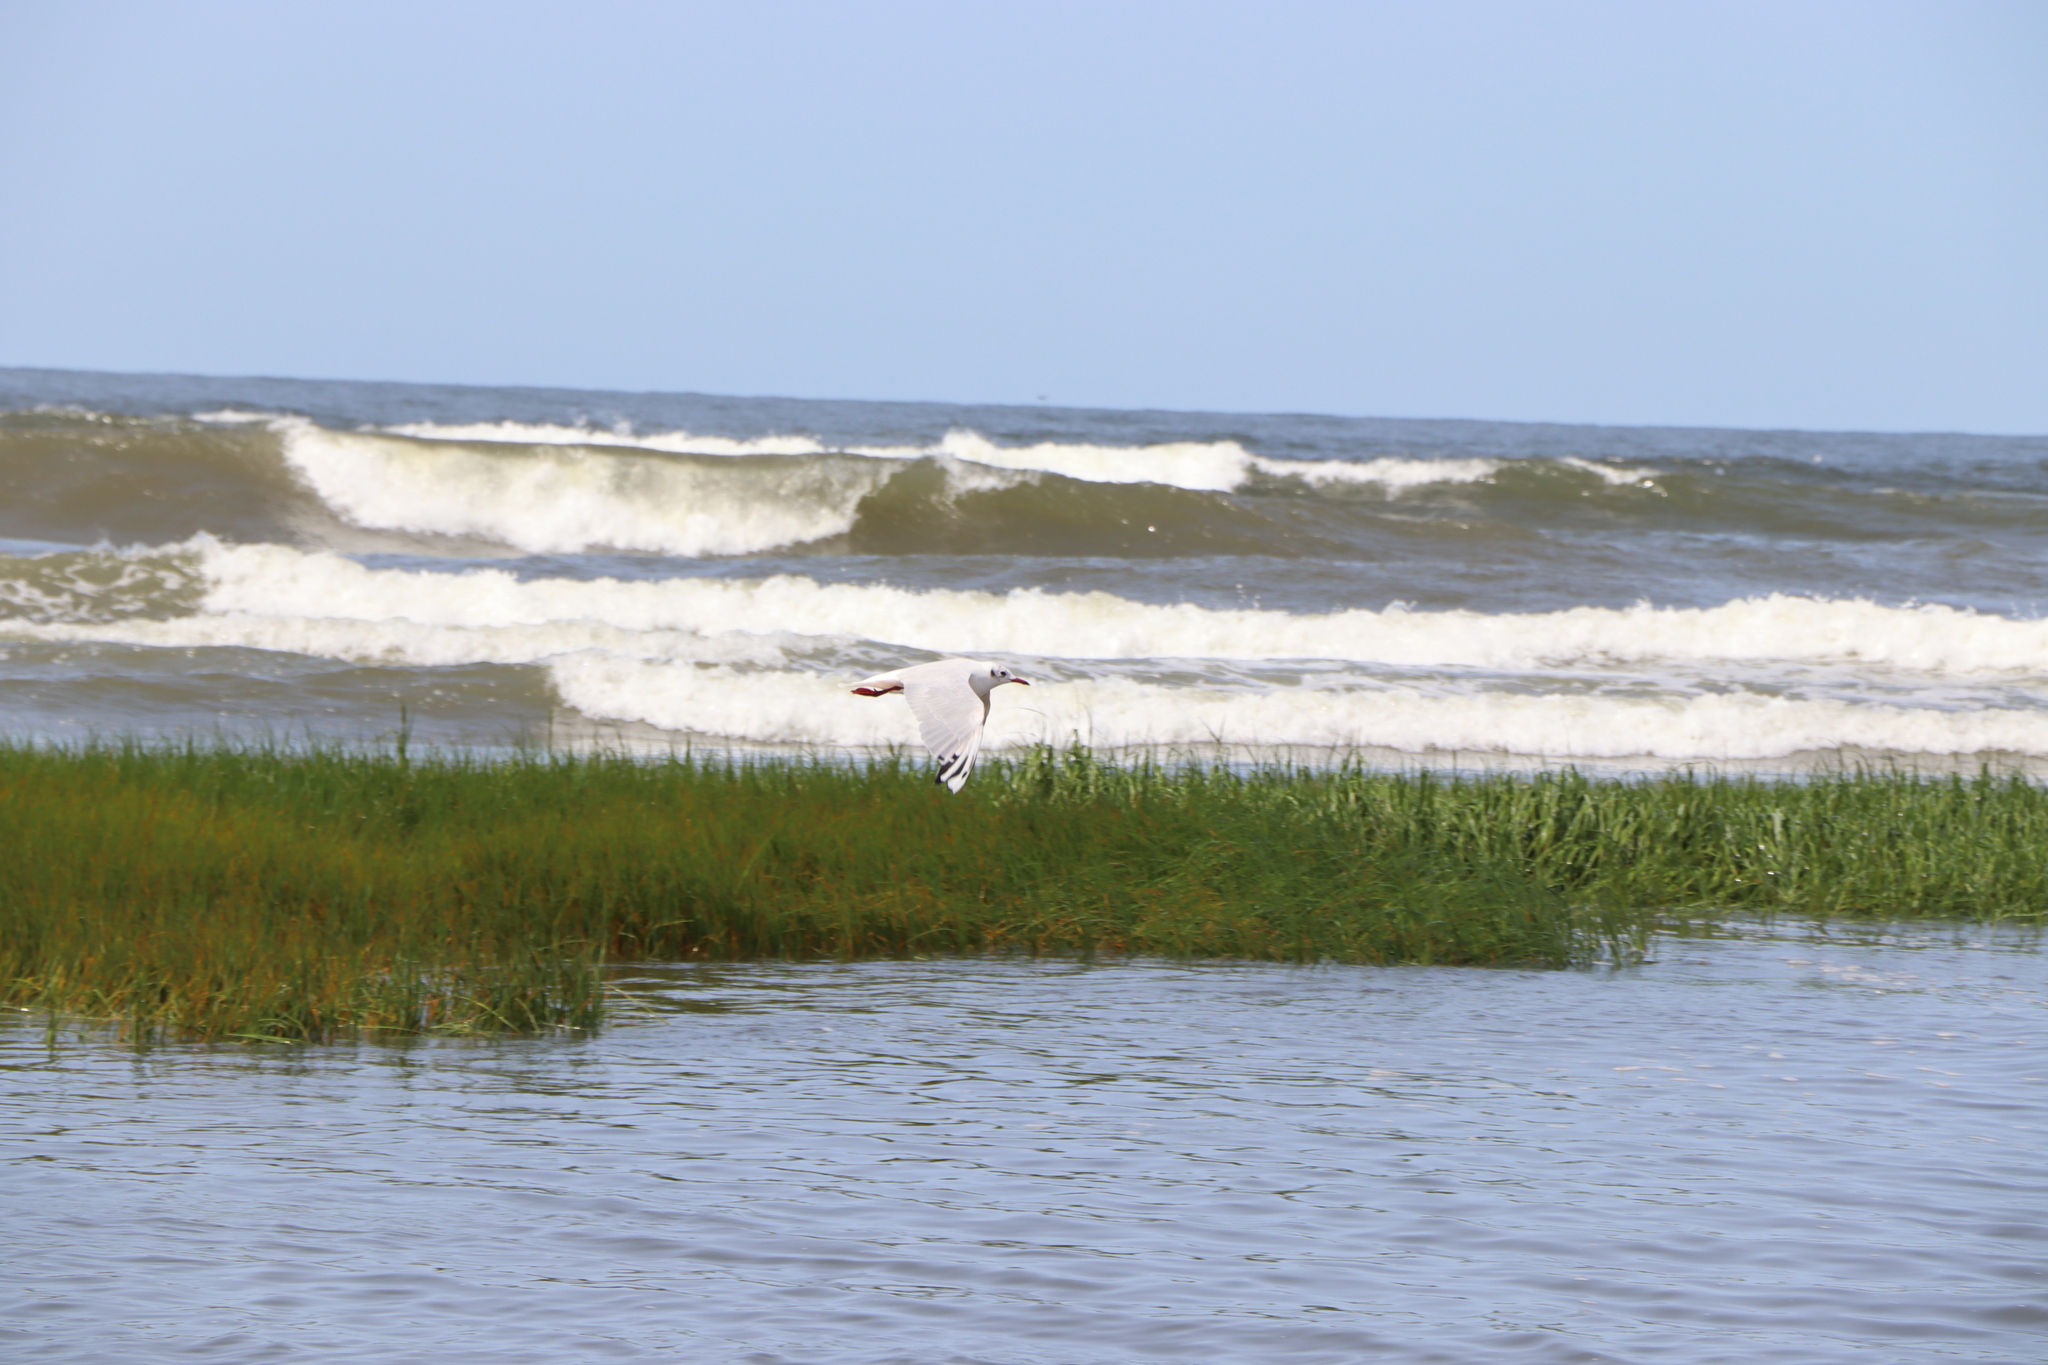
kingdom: Animalia
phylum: Chordata
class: Aves
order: Charadriiformes
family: Laridae
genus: Chroicocephalus
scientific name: Chroicocephalus maculipennis
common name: Brown-hooded gull
